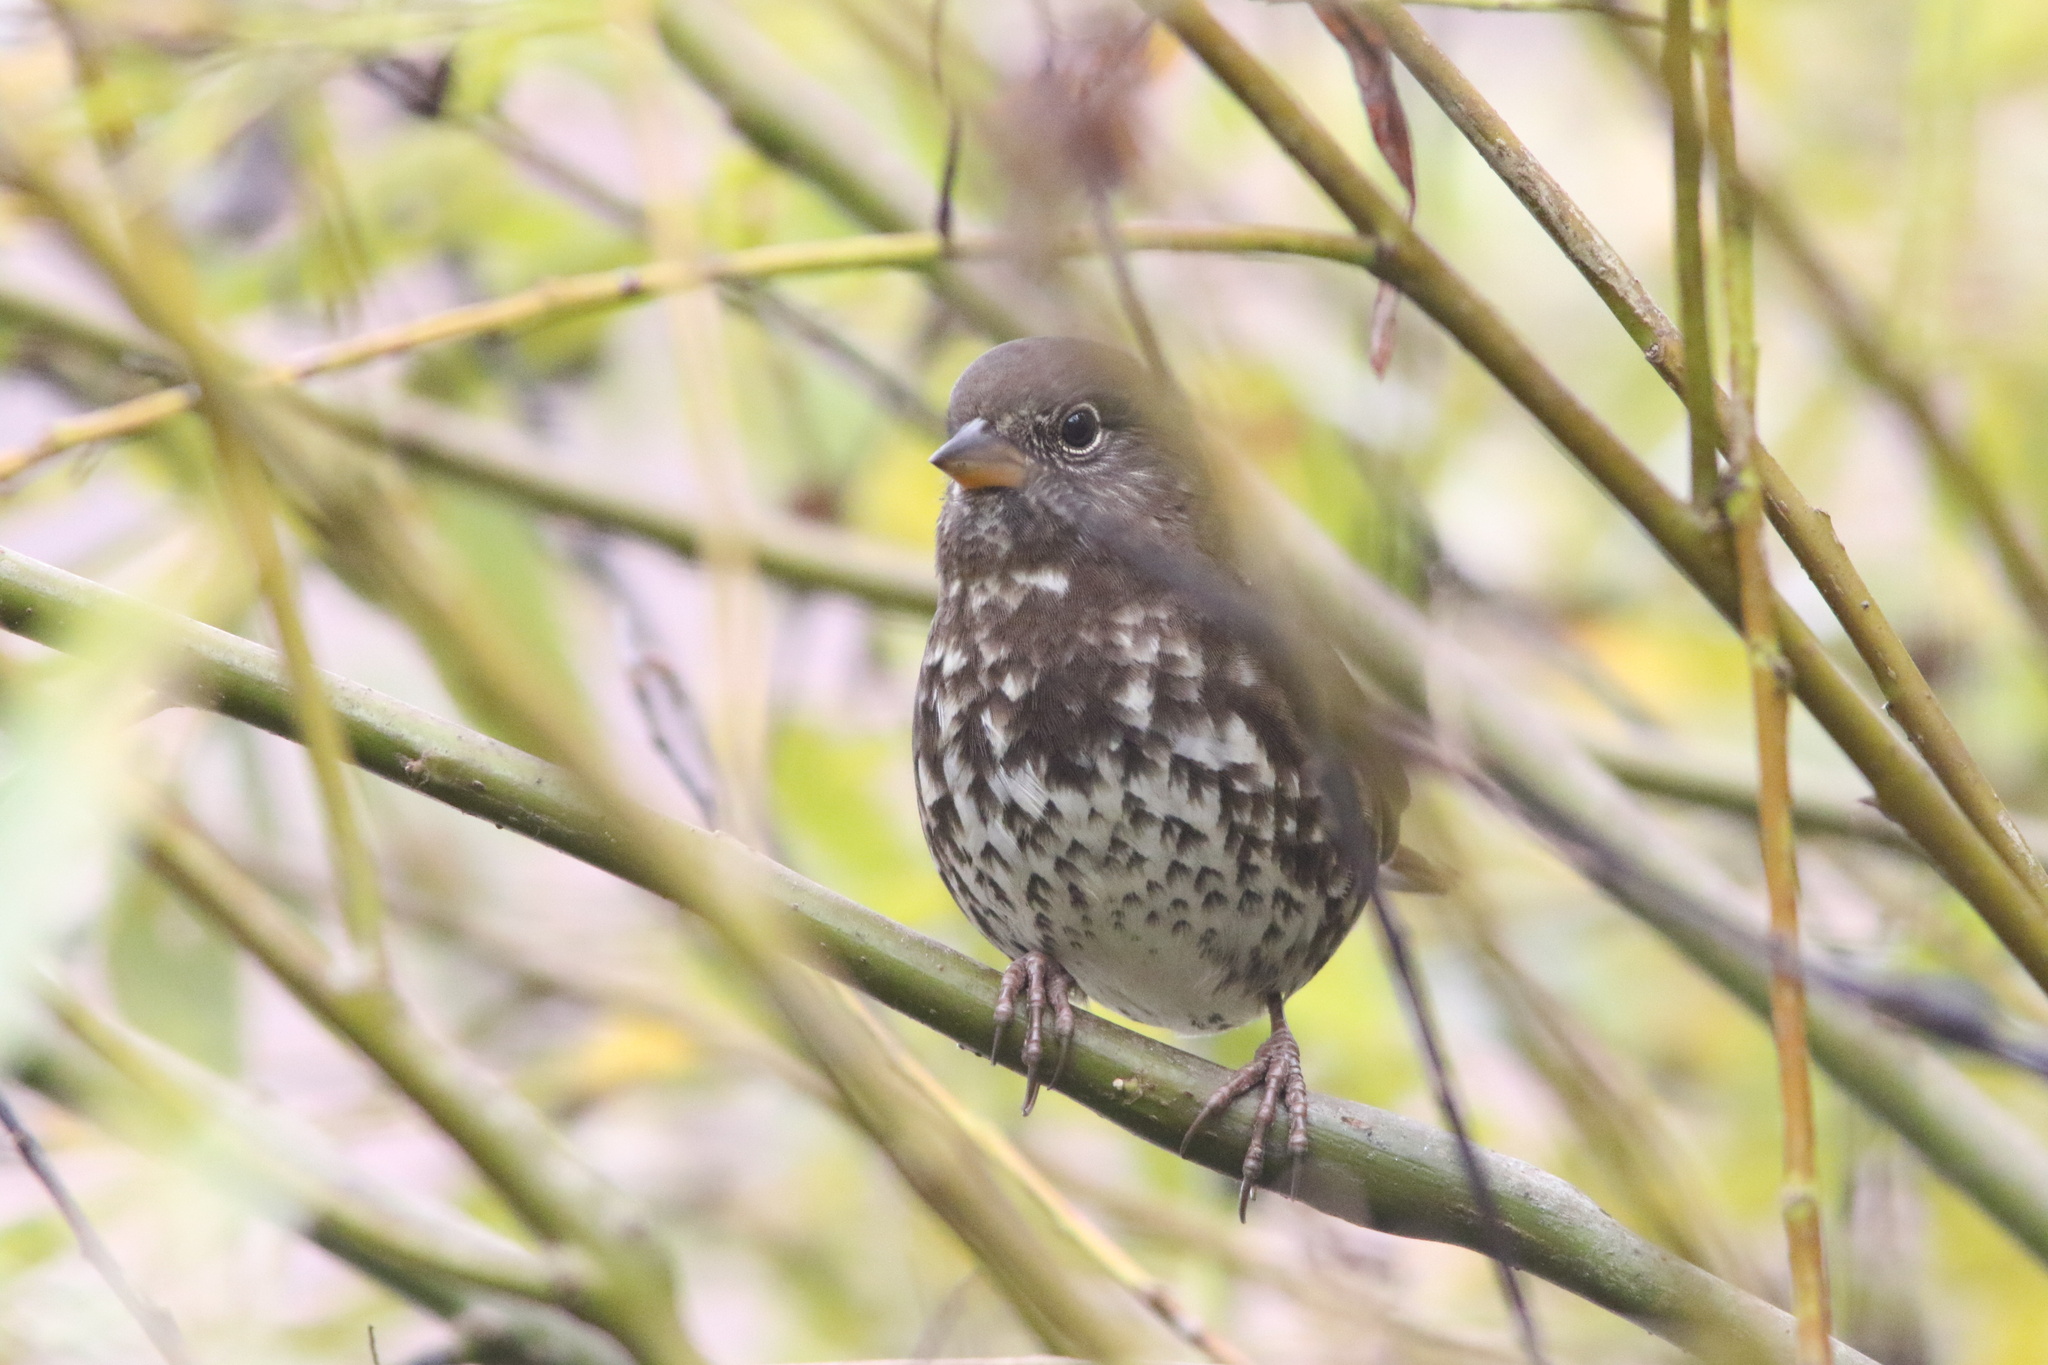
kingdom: Animalia
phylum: Chordata
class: Aves
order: Passeriformes
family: Passerellidae
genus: Passerella
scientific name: Passerella iliaca
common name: Fox sparrow
